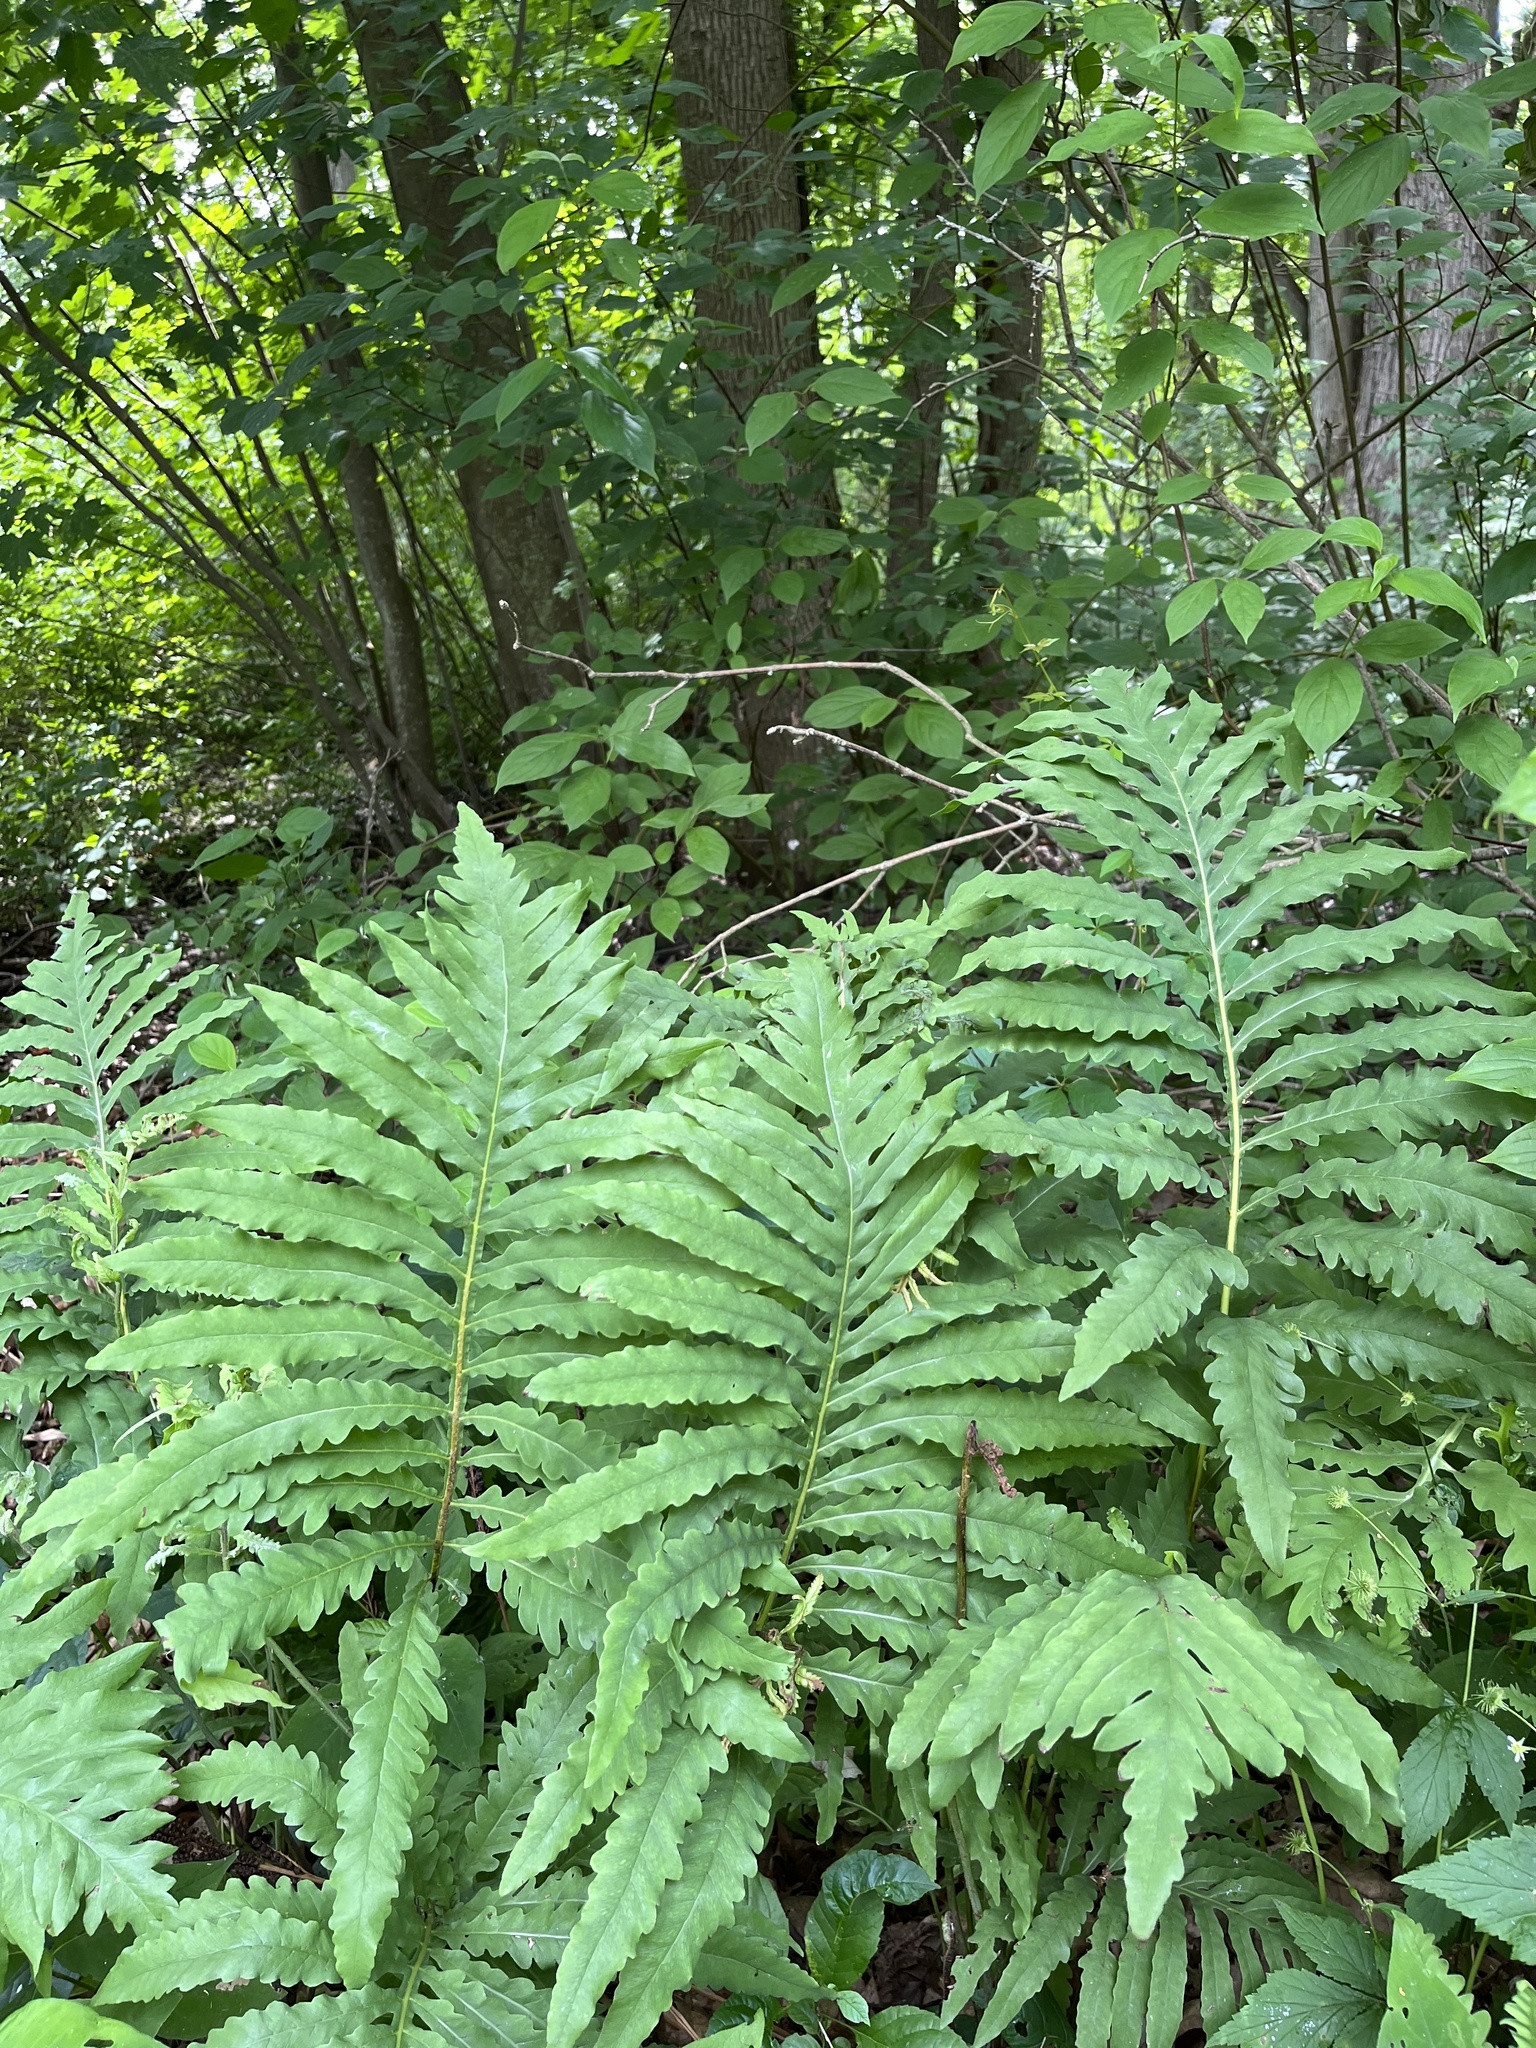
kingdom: Plantae
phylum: Tracheophyta
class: Polypodiopsida
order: Polypodiales
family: Onocleaceae
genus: Onoclea
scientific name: Onoclea sensibilis
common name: Sensitive fern
